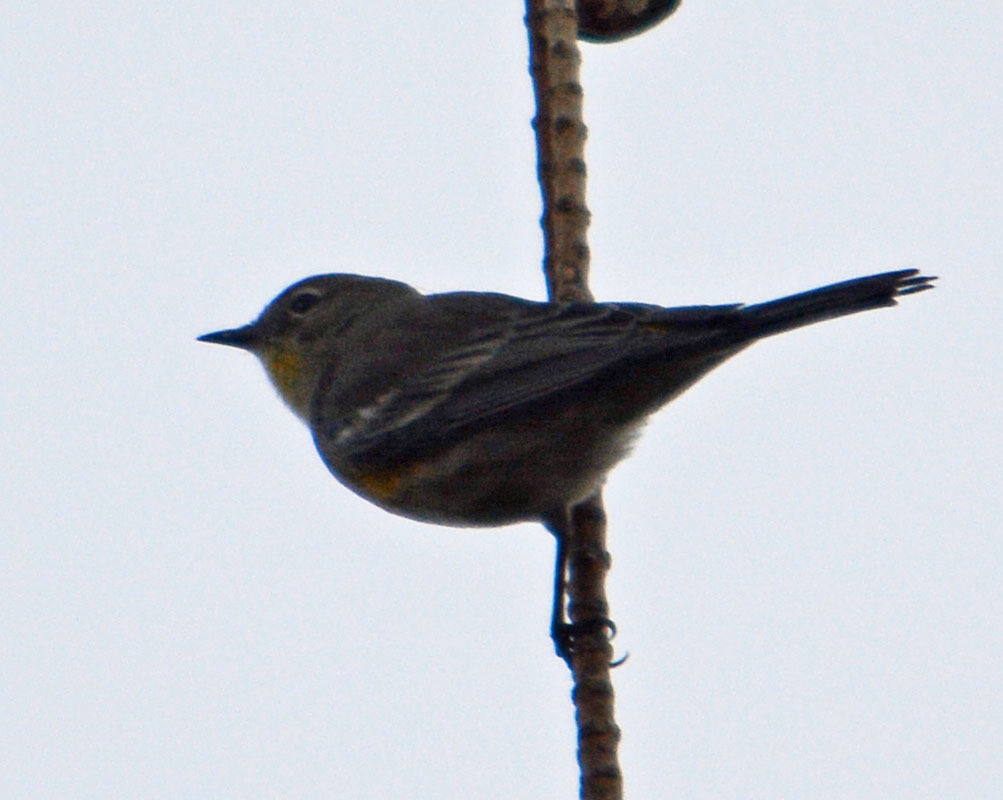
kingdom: Animalia
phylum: Chordata
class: Aves
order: Passeriformes
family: Parulidae
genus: Setophaga
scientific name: Setophaga coronata
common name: Myrtle warbler
